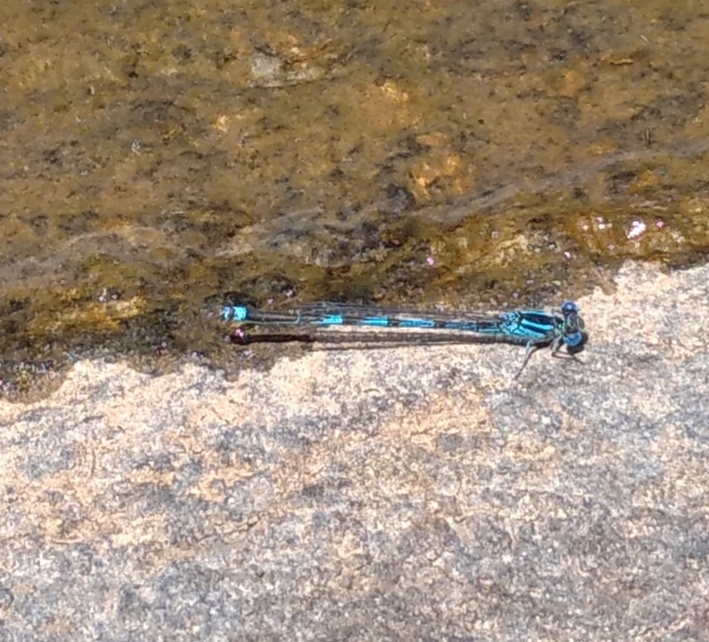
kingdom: Animalia
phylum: Arthropoda
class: Insecta
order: Odonata
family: Coenagrionidae
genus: Erythromma
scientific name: Erythromma lindenii
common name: Blue-eye
